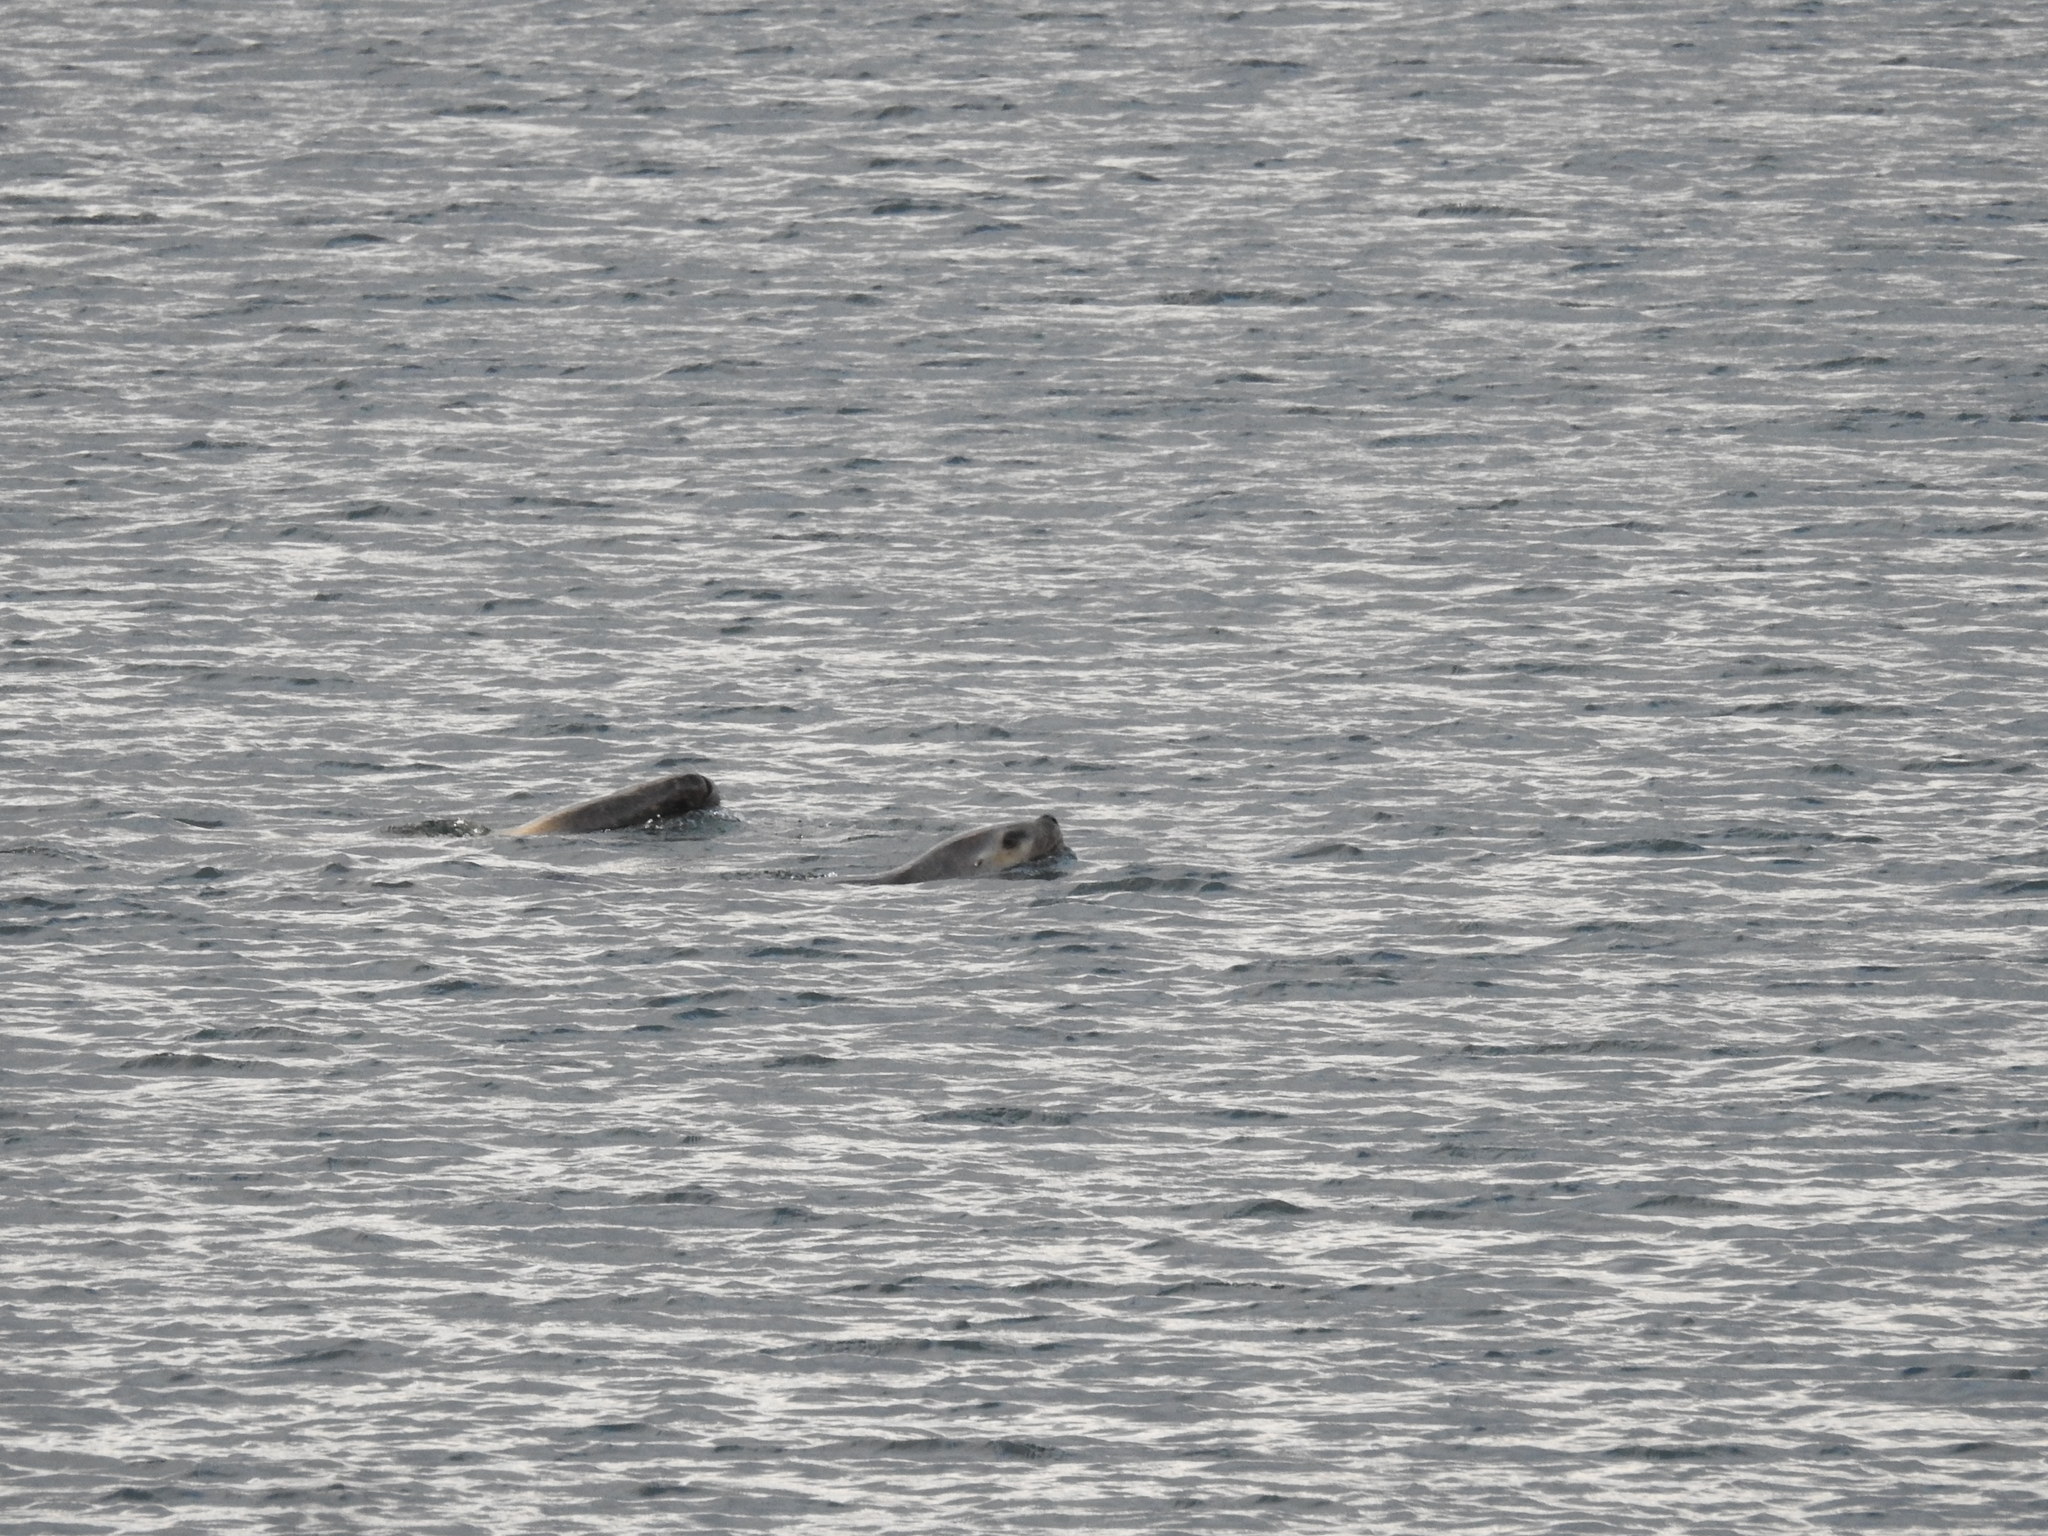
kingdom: Animalia
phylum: Chordata
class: Mammalia
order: Carnivora
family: Otariidae
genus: Otaria
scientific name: Otaria byronia
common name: South american sea lion
